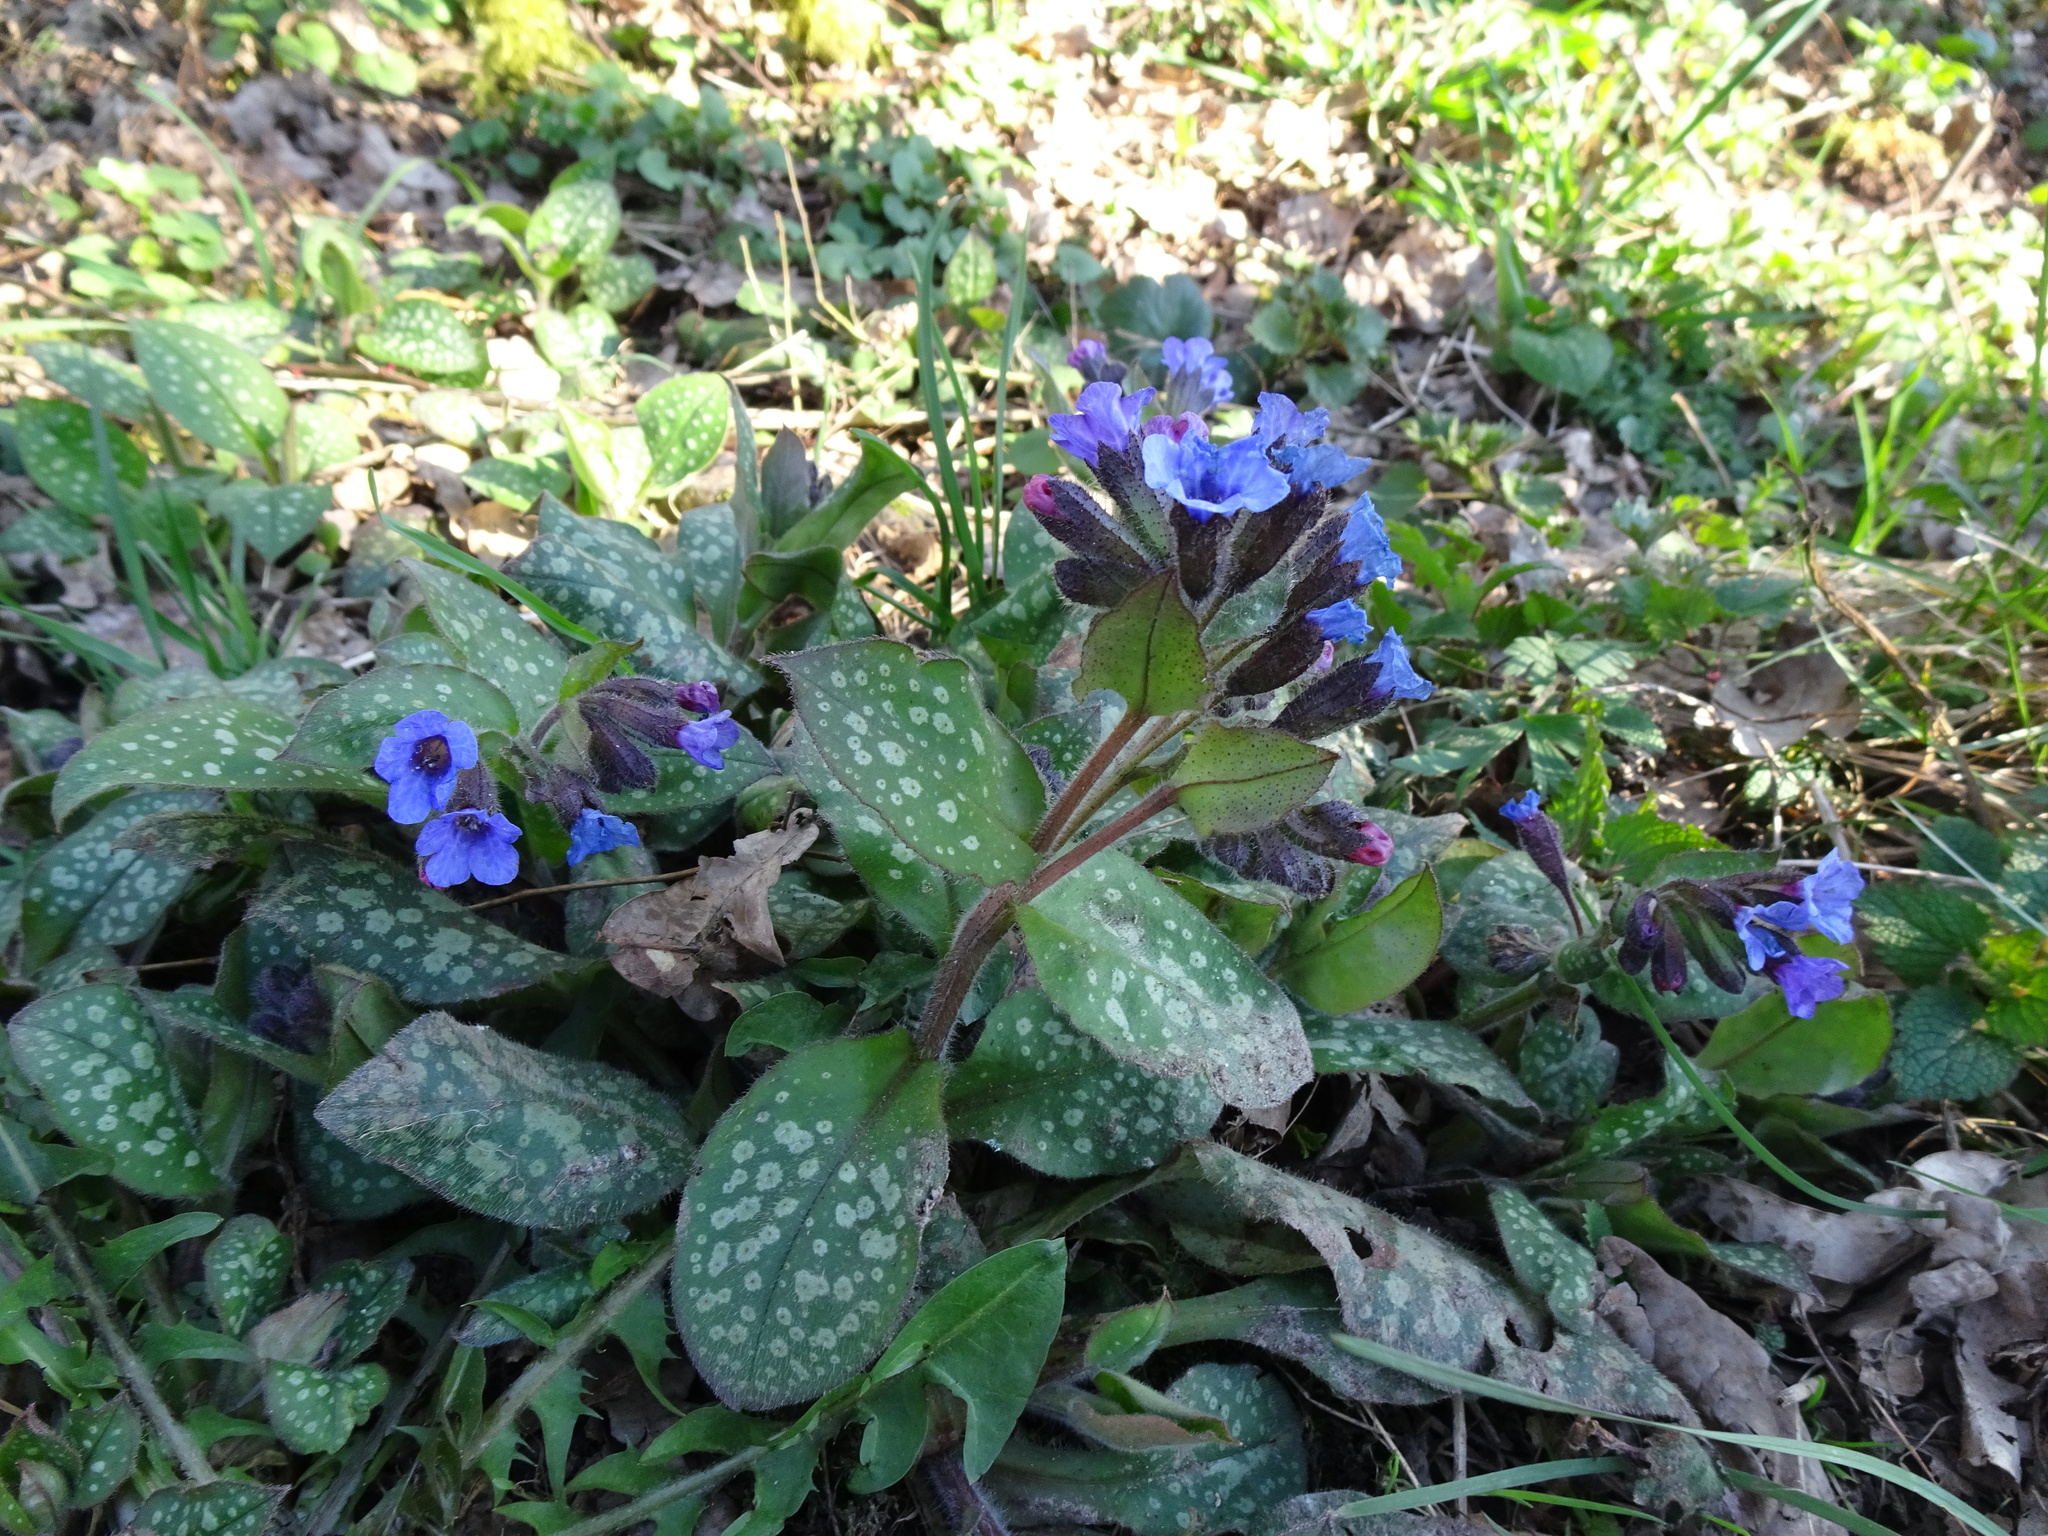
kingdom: Plantae
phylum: Tracheophyta
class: Magnoliopsida
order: Boraginales
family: Boraginaceae
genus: Pulmonaria
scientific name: Pulmonaria officinalis
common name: Lungwort
